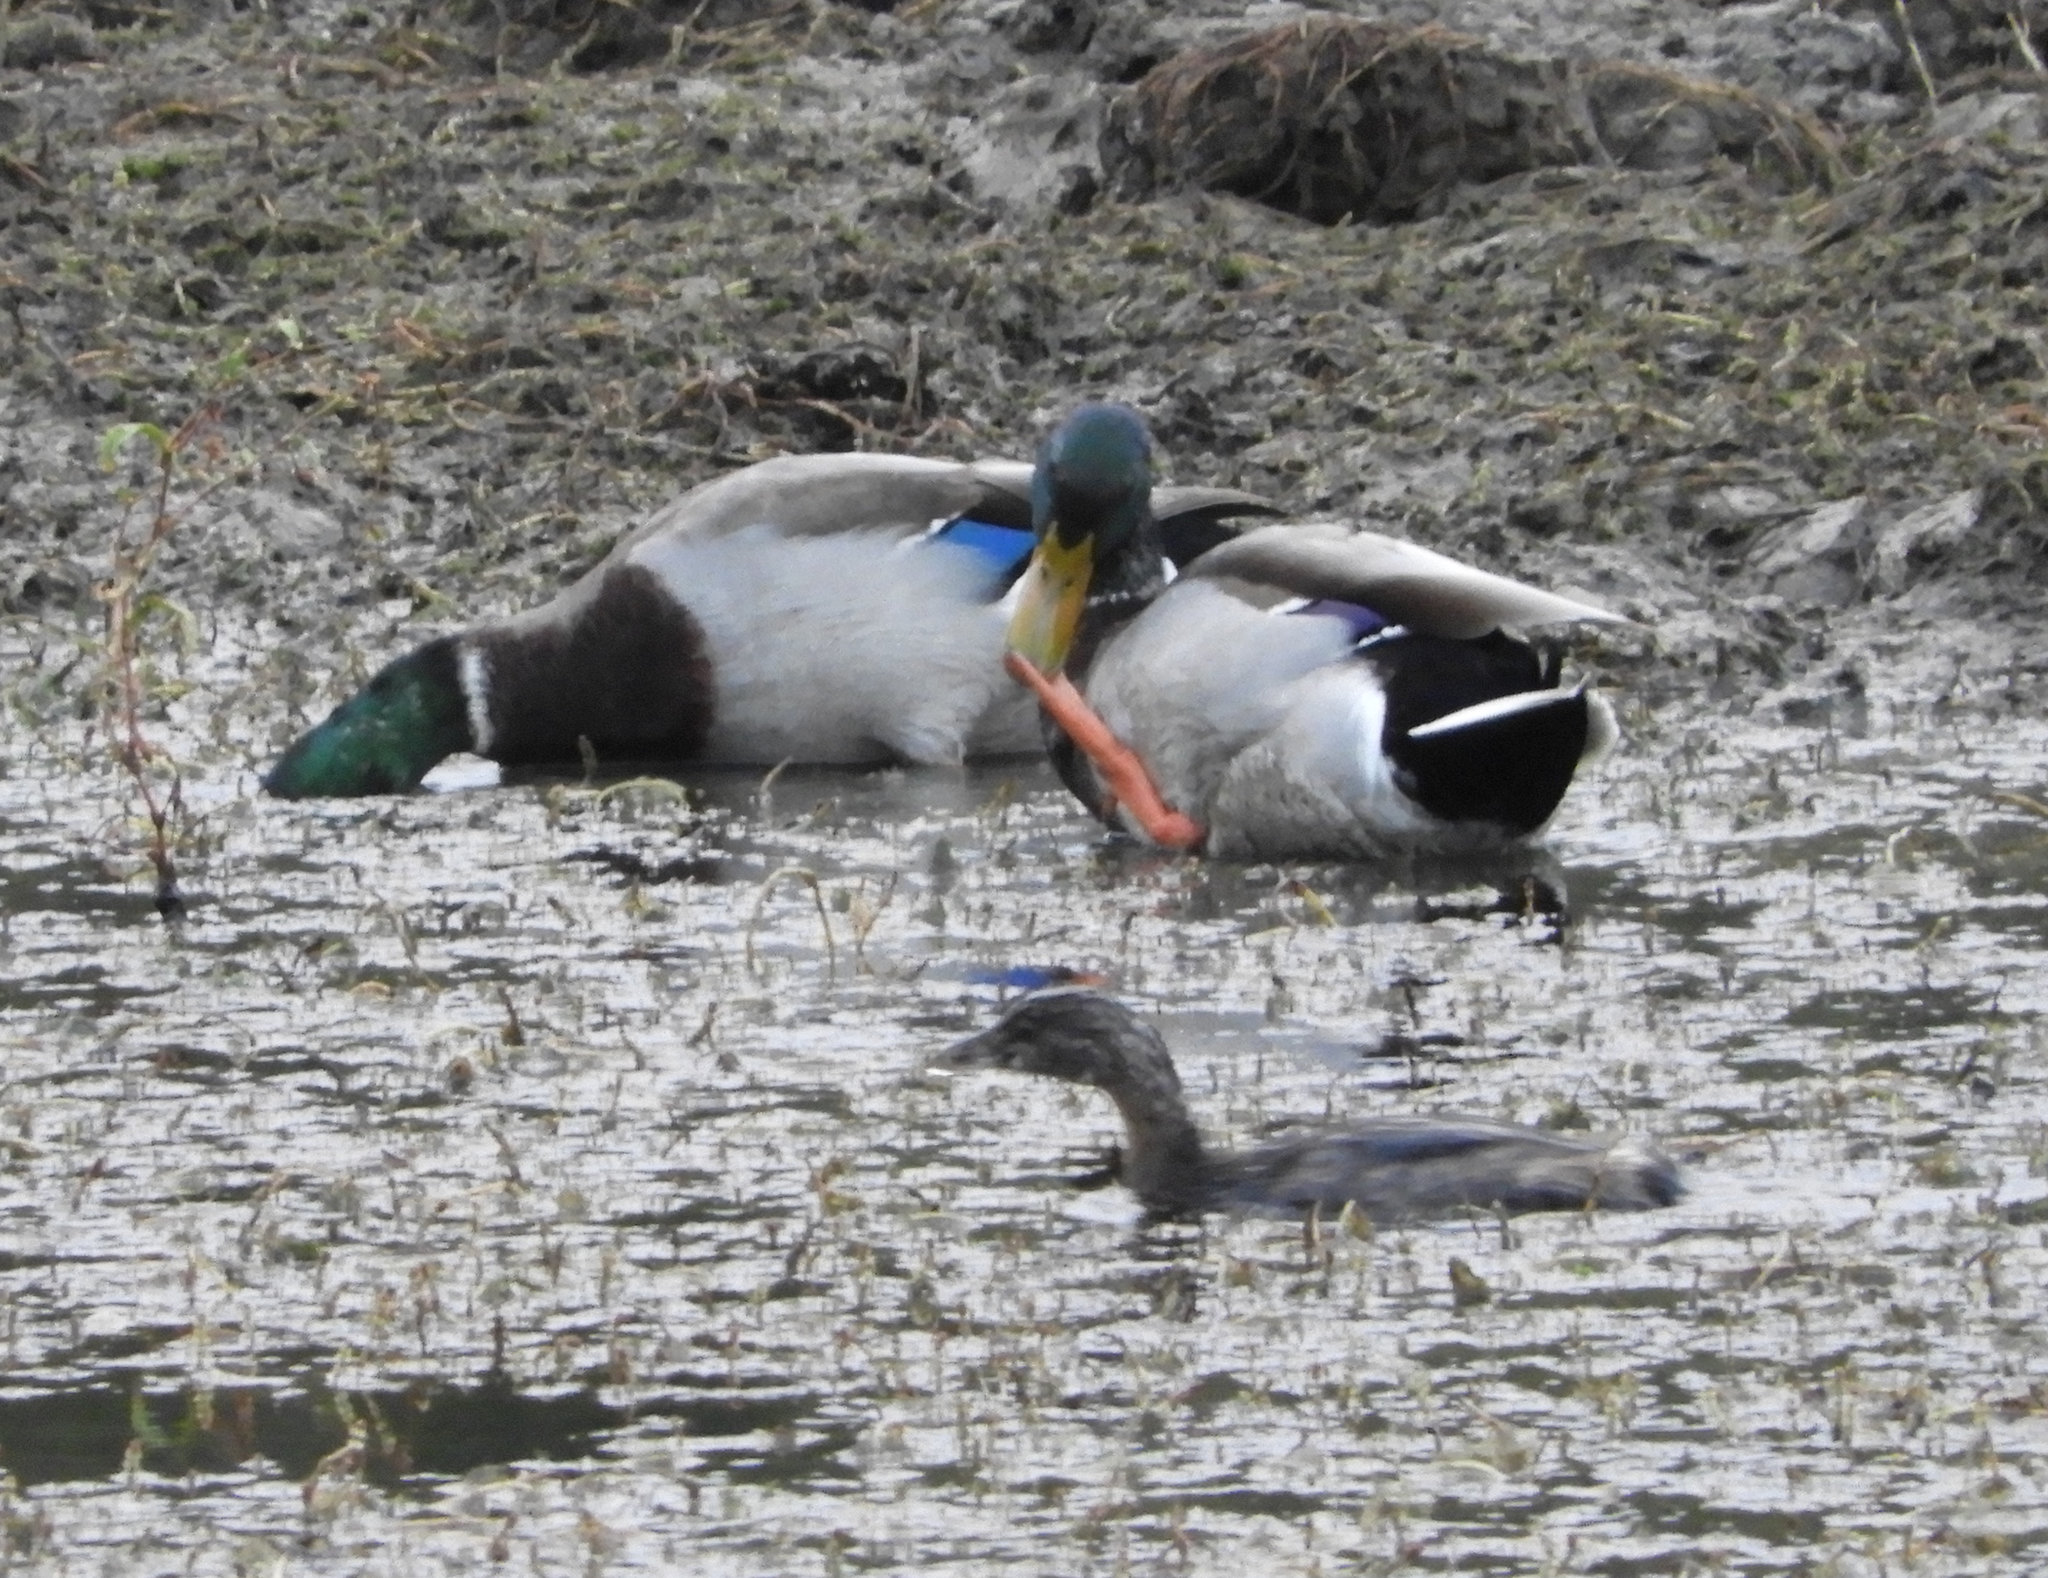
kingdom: Animalia
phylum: Chordata
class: Aves
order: Podicipediformes
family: Podicipedidae
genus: Podilymbus
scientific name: Podilymbus podiceps
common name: Pied-billed grebe
